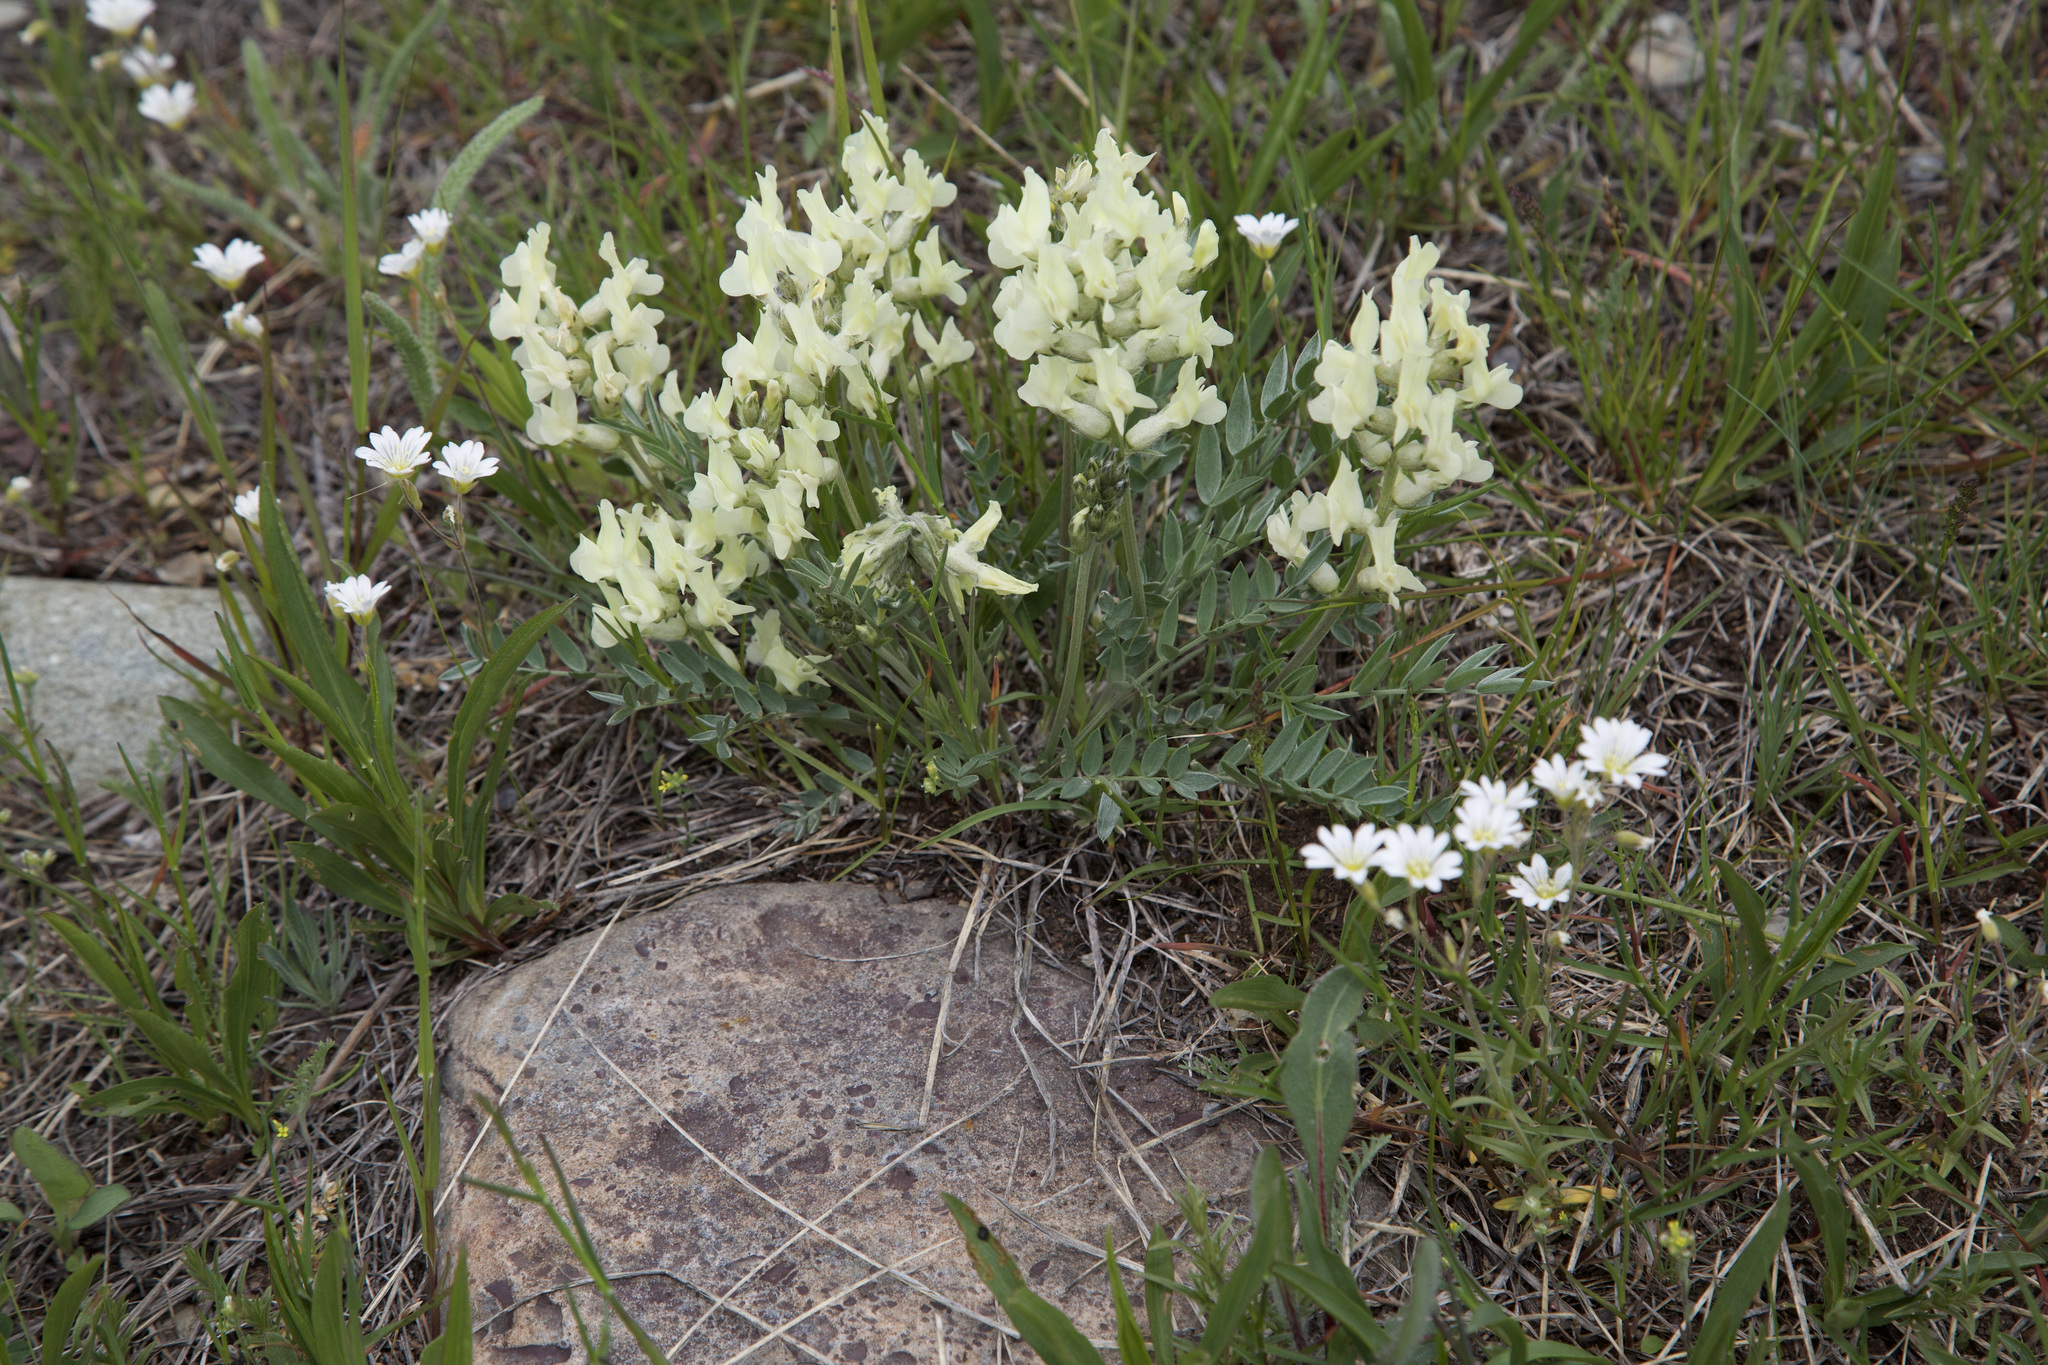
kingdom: Plantae
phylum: Tracheophyta
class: Magnoliopsida
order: Fabales
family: Fabaceae
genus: Oxytropis
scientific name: Oxytropis sericea
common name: Silky locoweed
